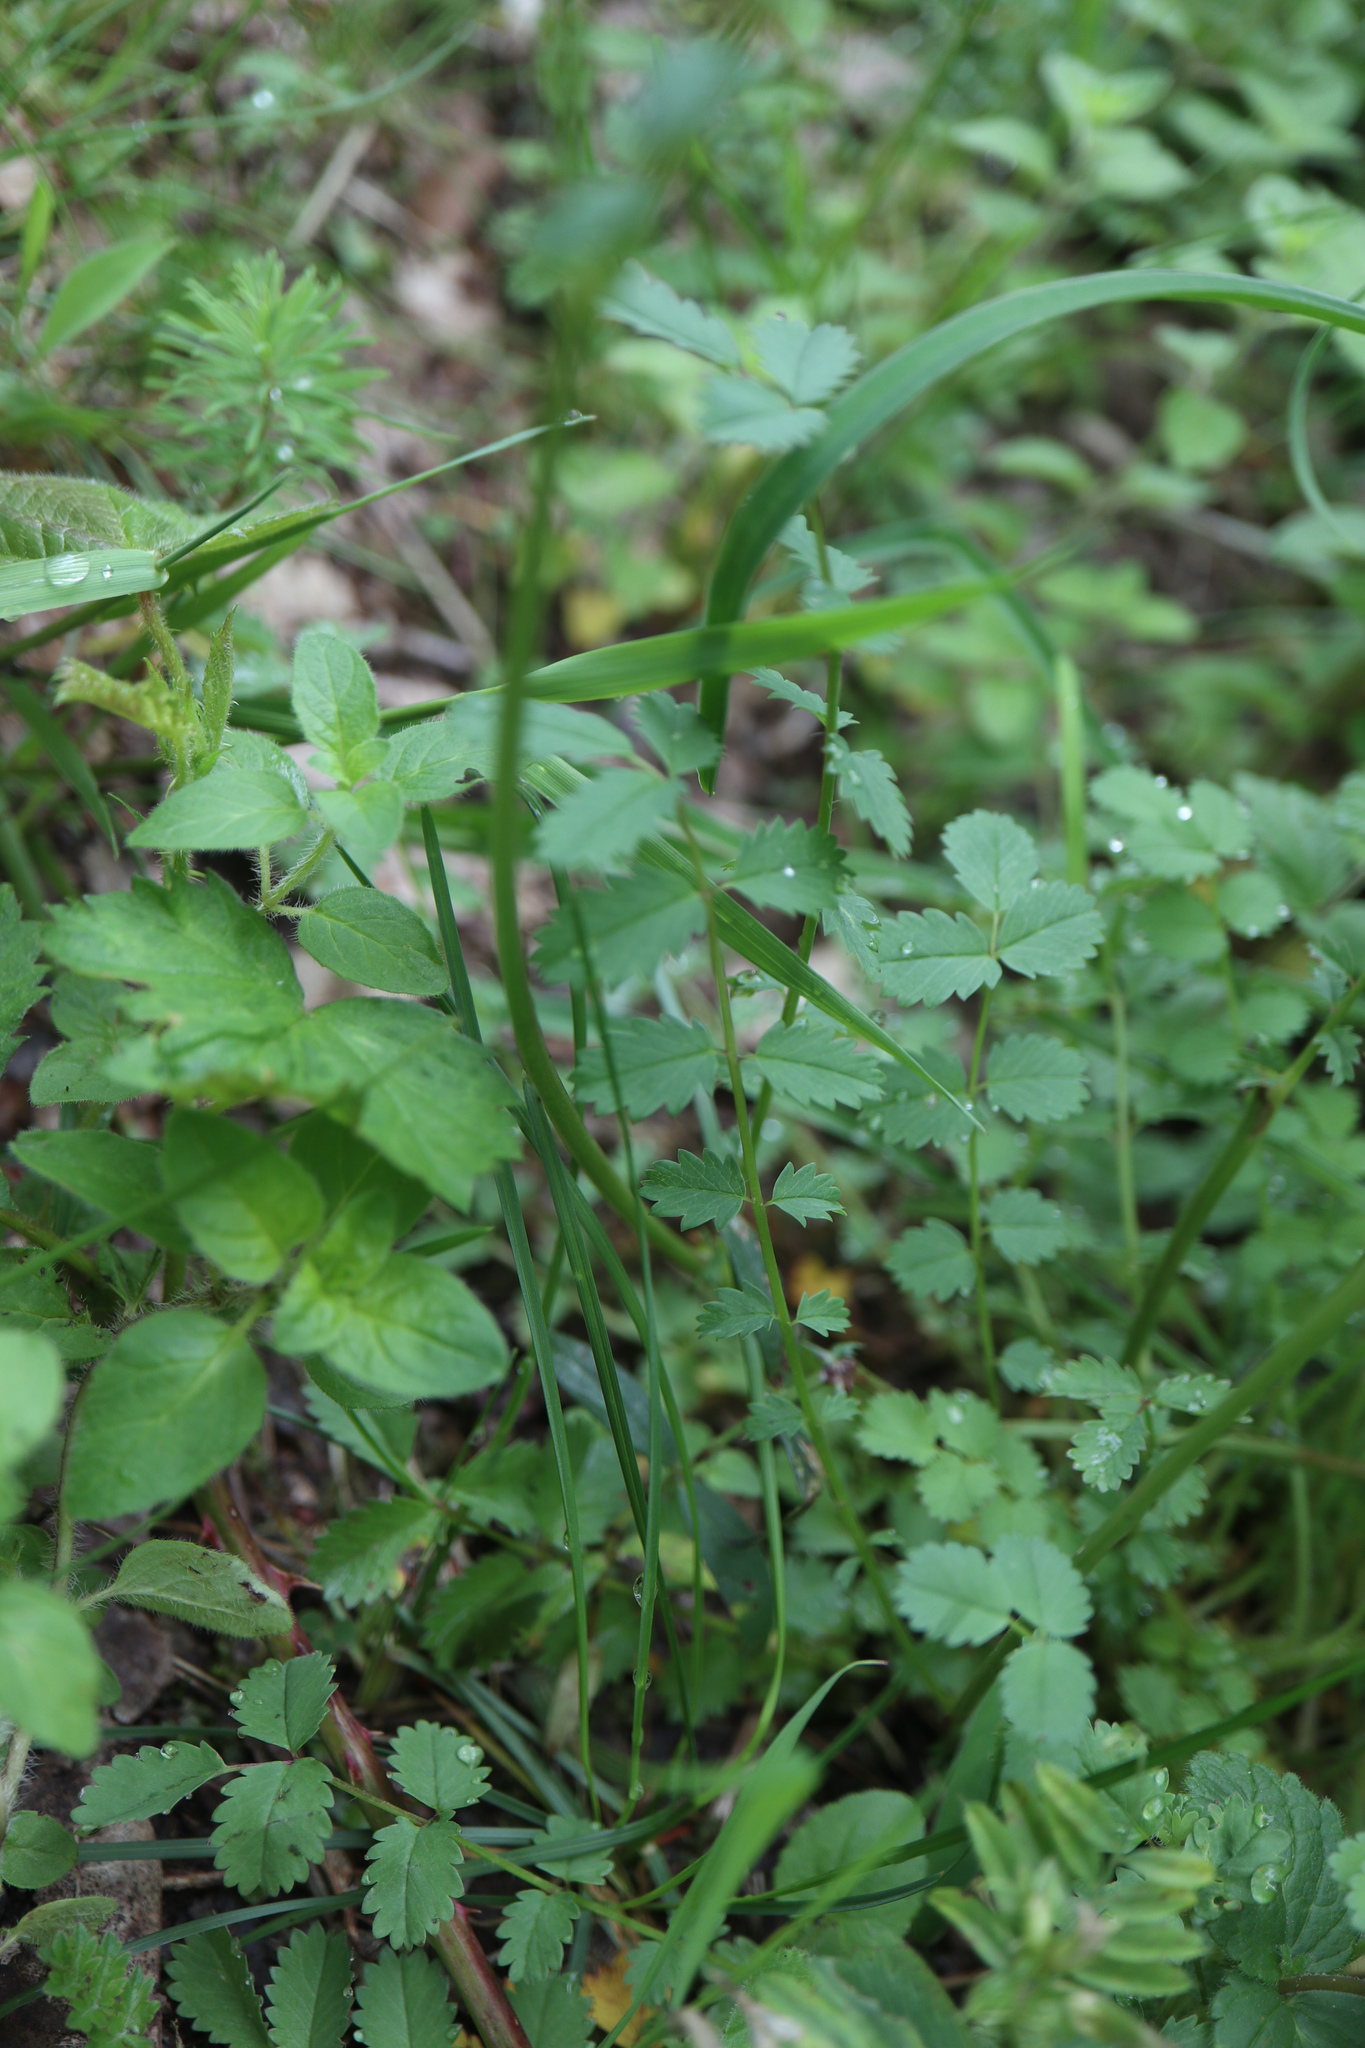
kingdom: Plantae
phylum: Tracheophyta
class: Magnoliopsida
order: Rosales
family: Rosaceae
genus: Poterium
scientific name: Poterium sanguisorba
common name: Salad burnet
